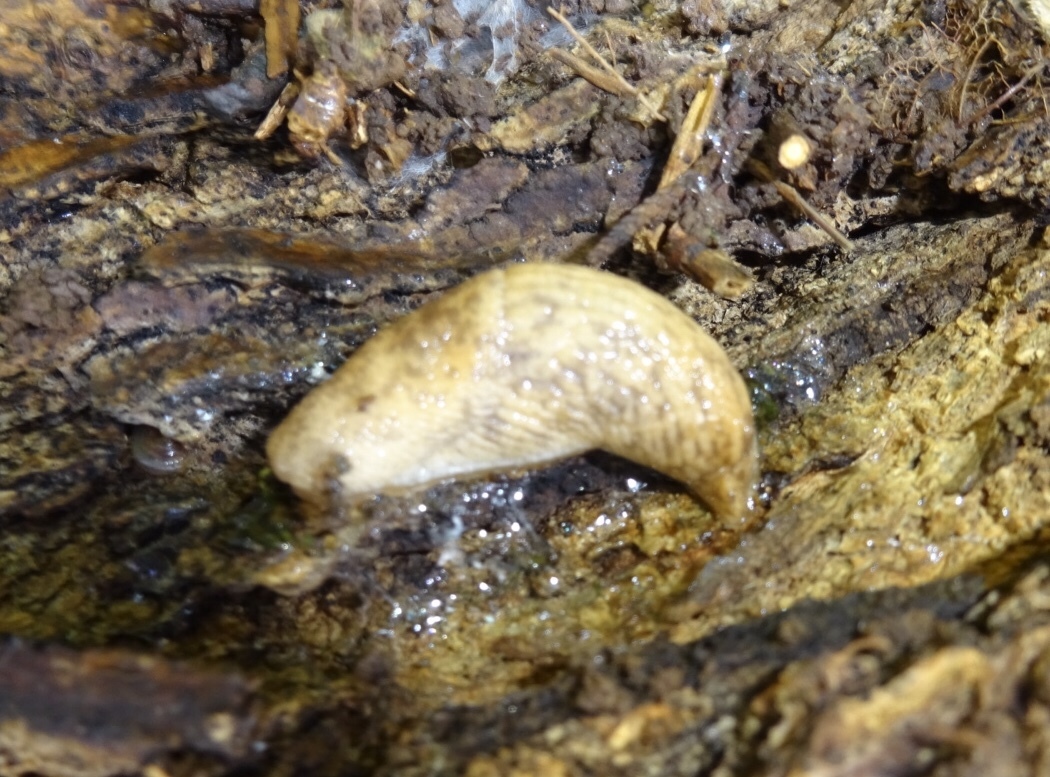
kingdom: Animalia
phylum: Mollusca
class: Gastropoda
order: Stylommatophora
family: Agriolimacidae
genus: Deroceras
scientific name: Deroceras reticulatum
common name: Gray field slug
